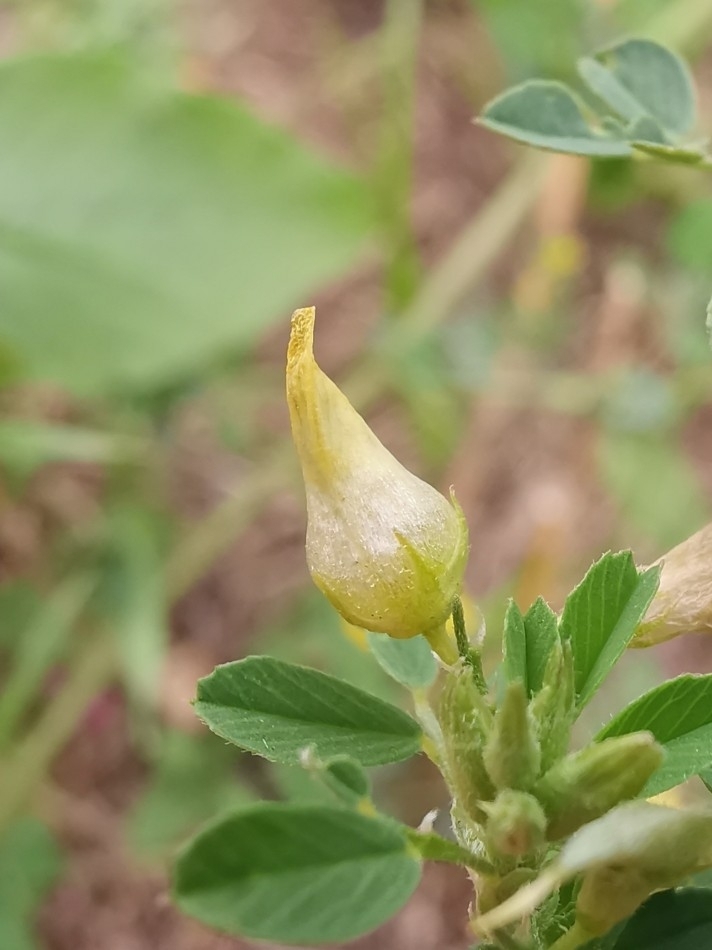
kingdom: Animalia
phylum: Arthropoda
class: Insecta
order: Diptera
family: Cecidomyiidae
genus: Contarinia
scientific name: Contarinia medicaginis
